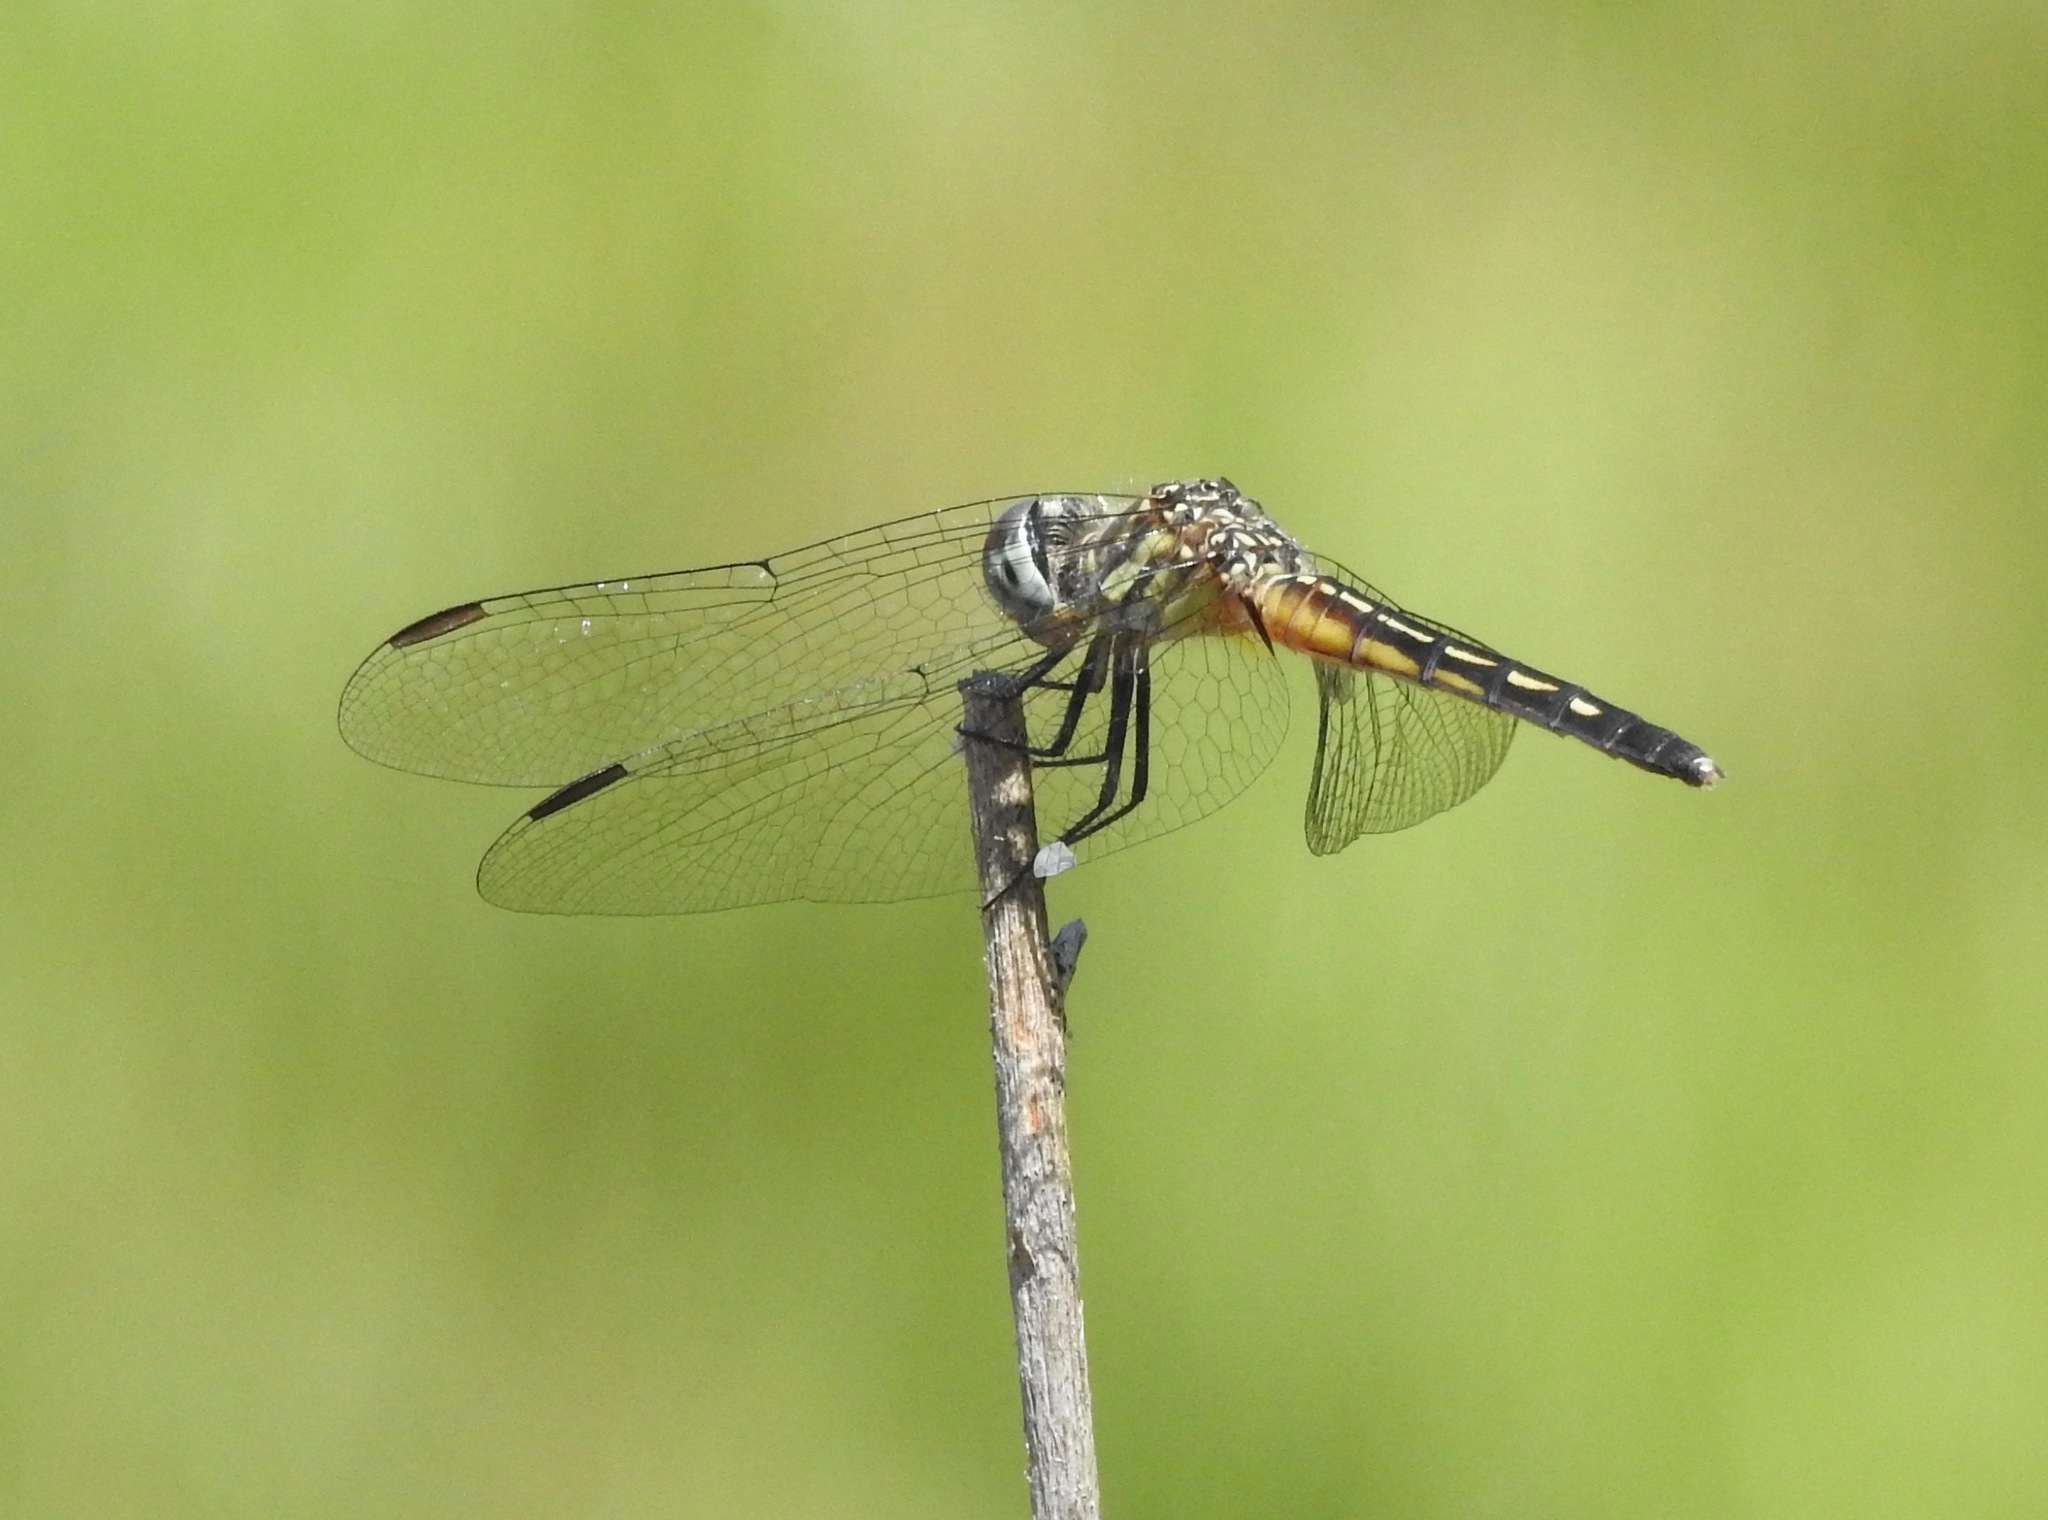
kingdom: Animalia
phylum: Arthropoda
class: Insecta
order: Odonata
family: Libellulidae
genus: Pachydiplax
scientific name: Pachydiplax longipennis
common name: Blue dasher
